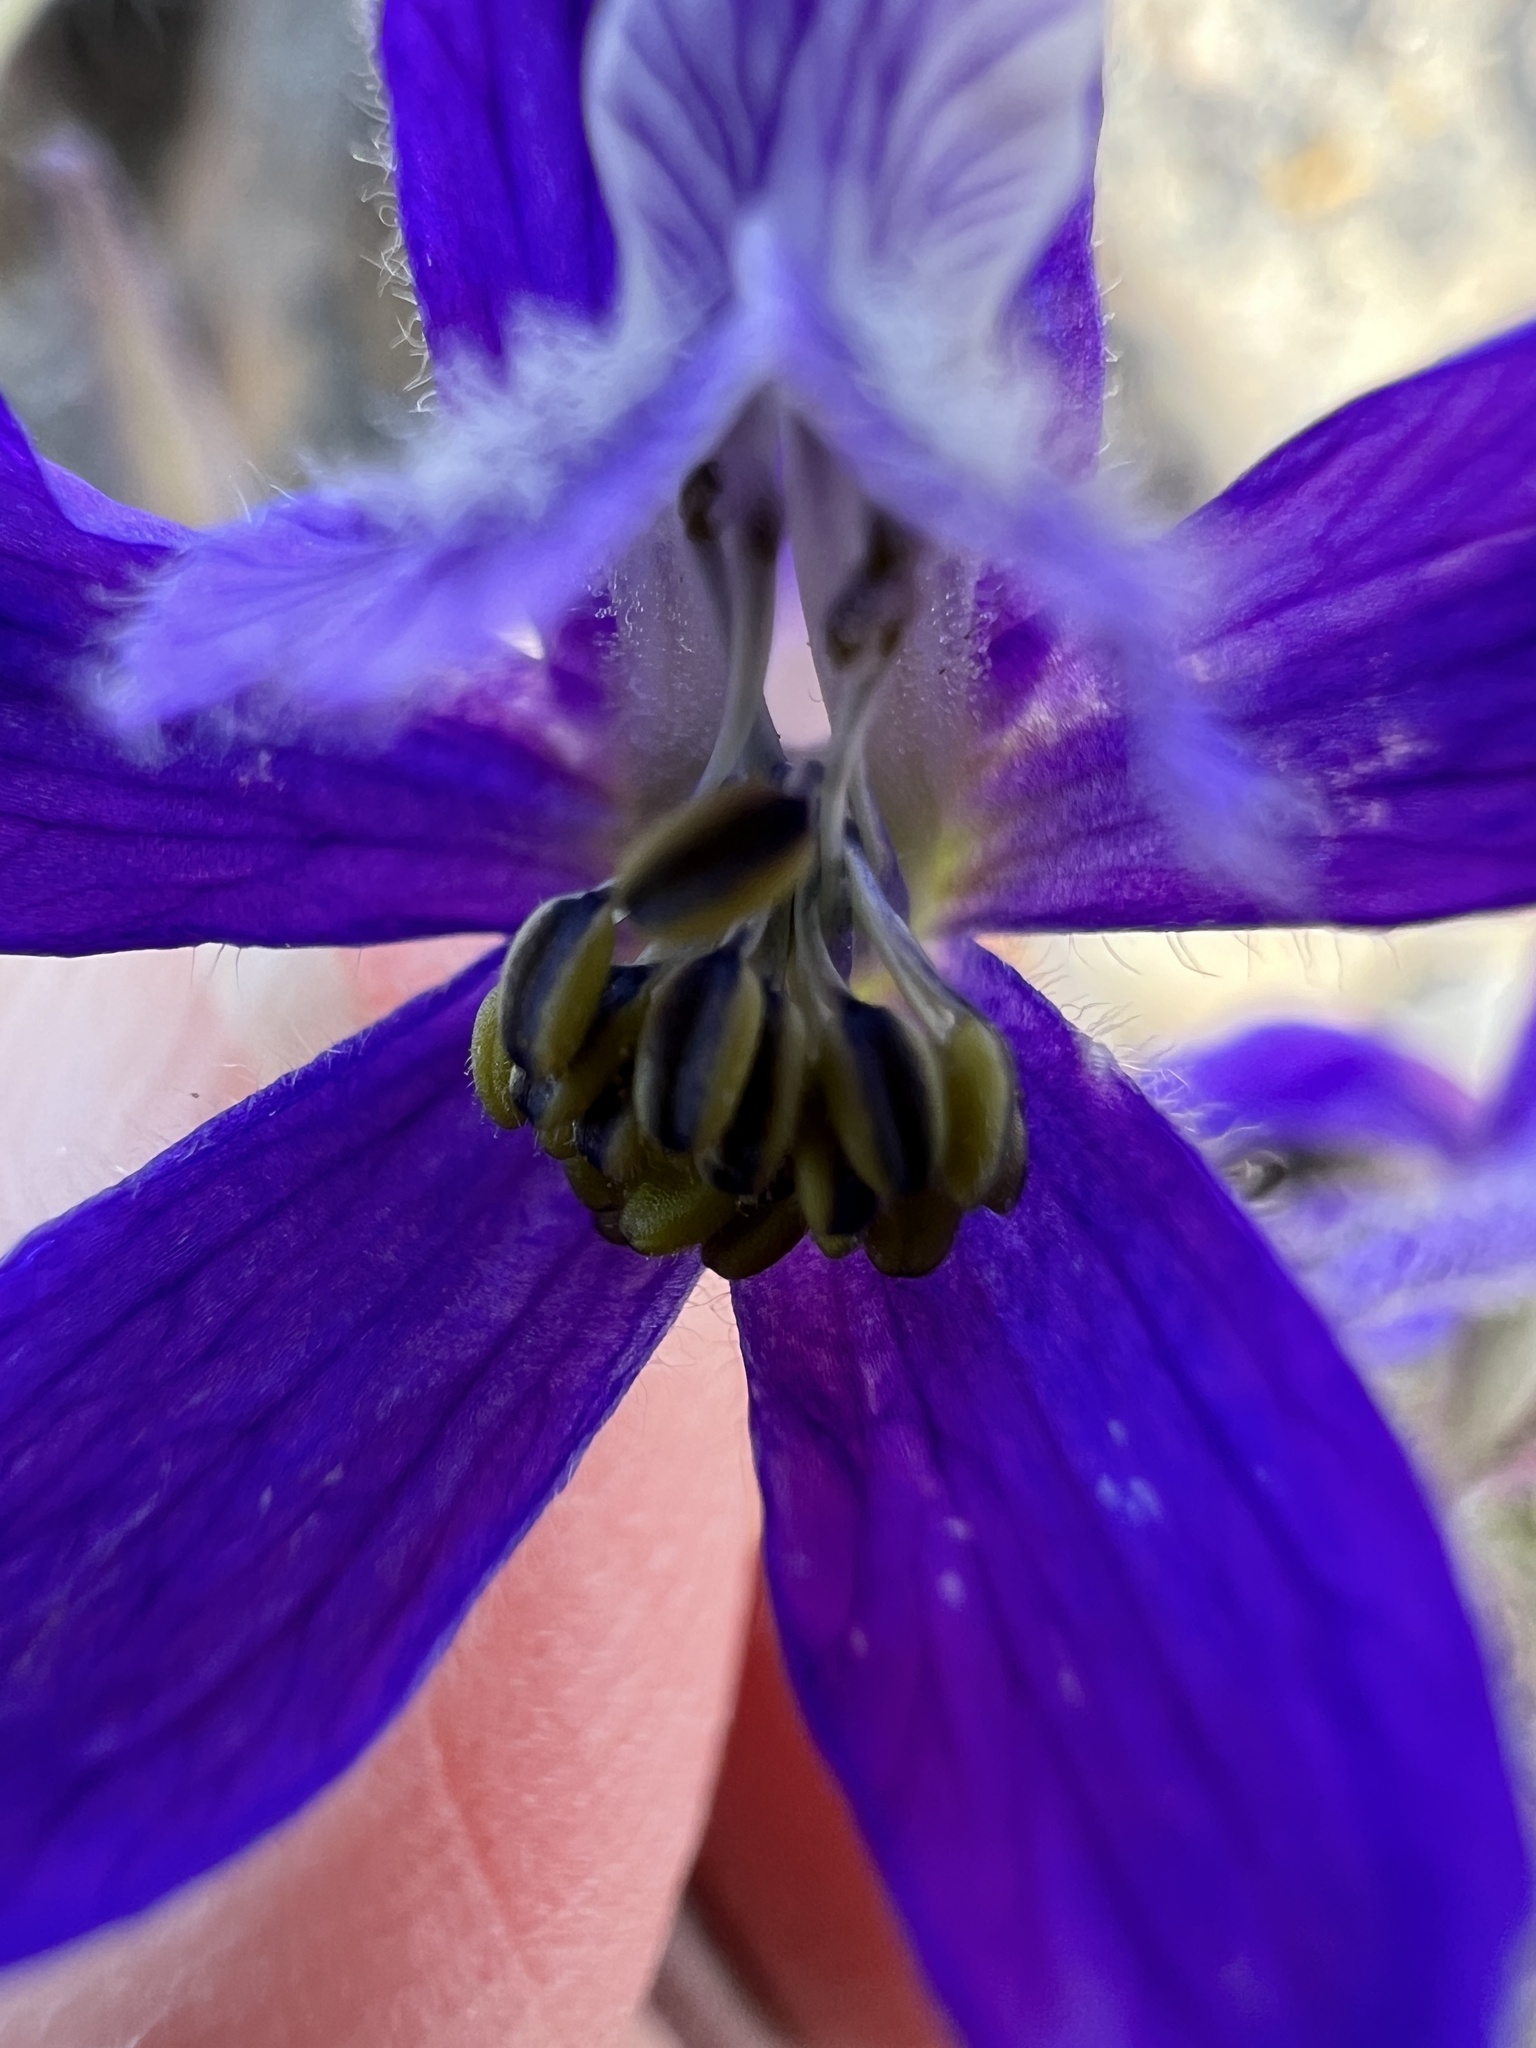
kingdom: Plantae
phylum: Tracheophyta
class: Magnoliopsida
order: Ranunculales
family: Ranunculaceae
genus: Delphinium
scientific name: Delphinium nuttallianum
